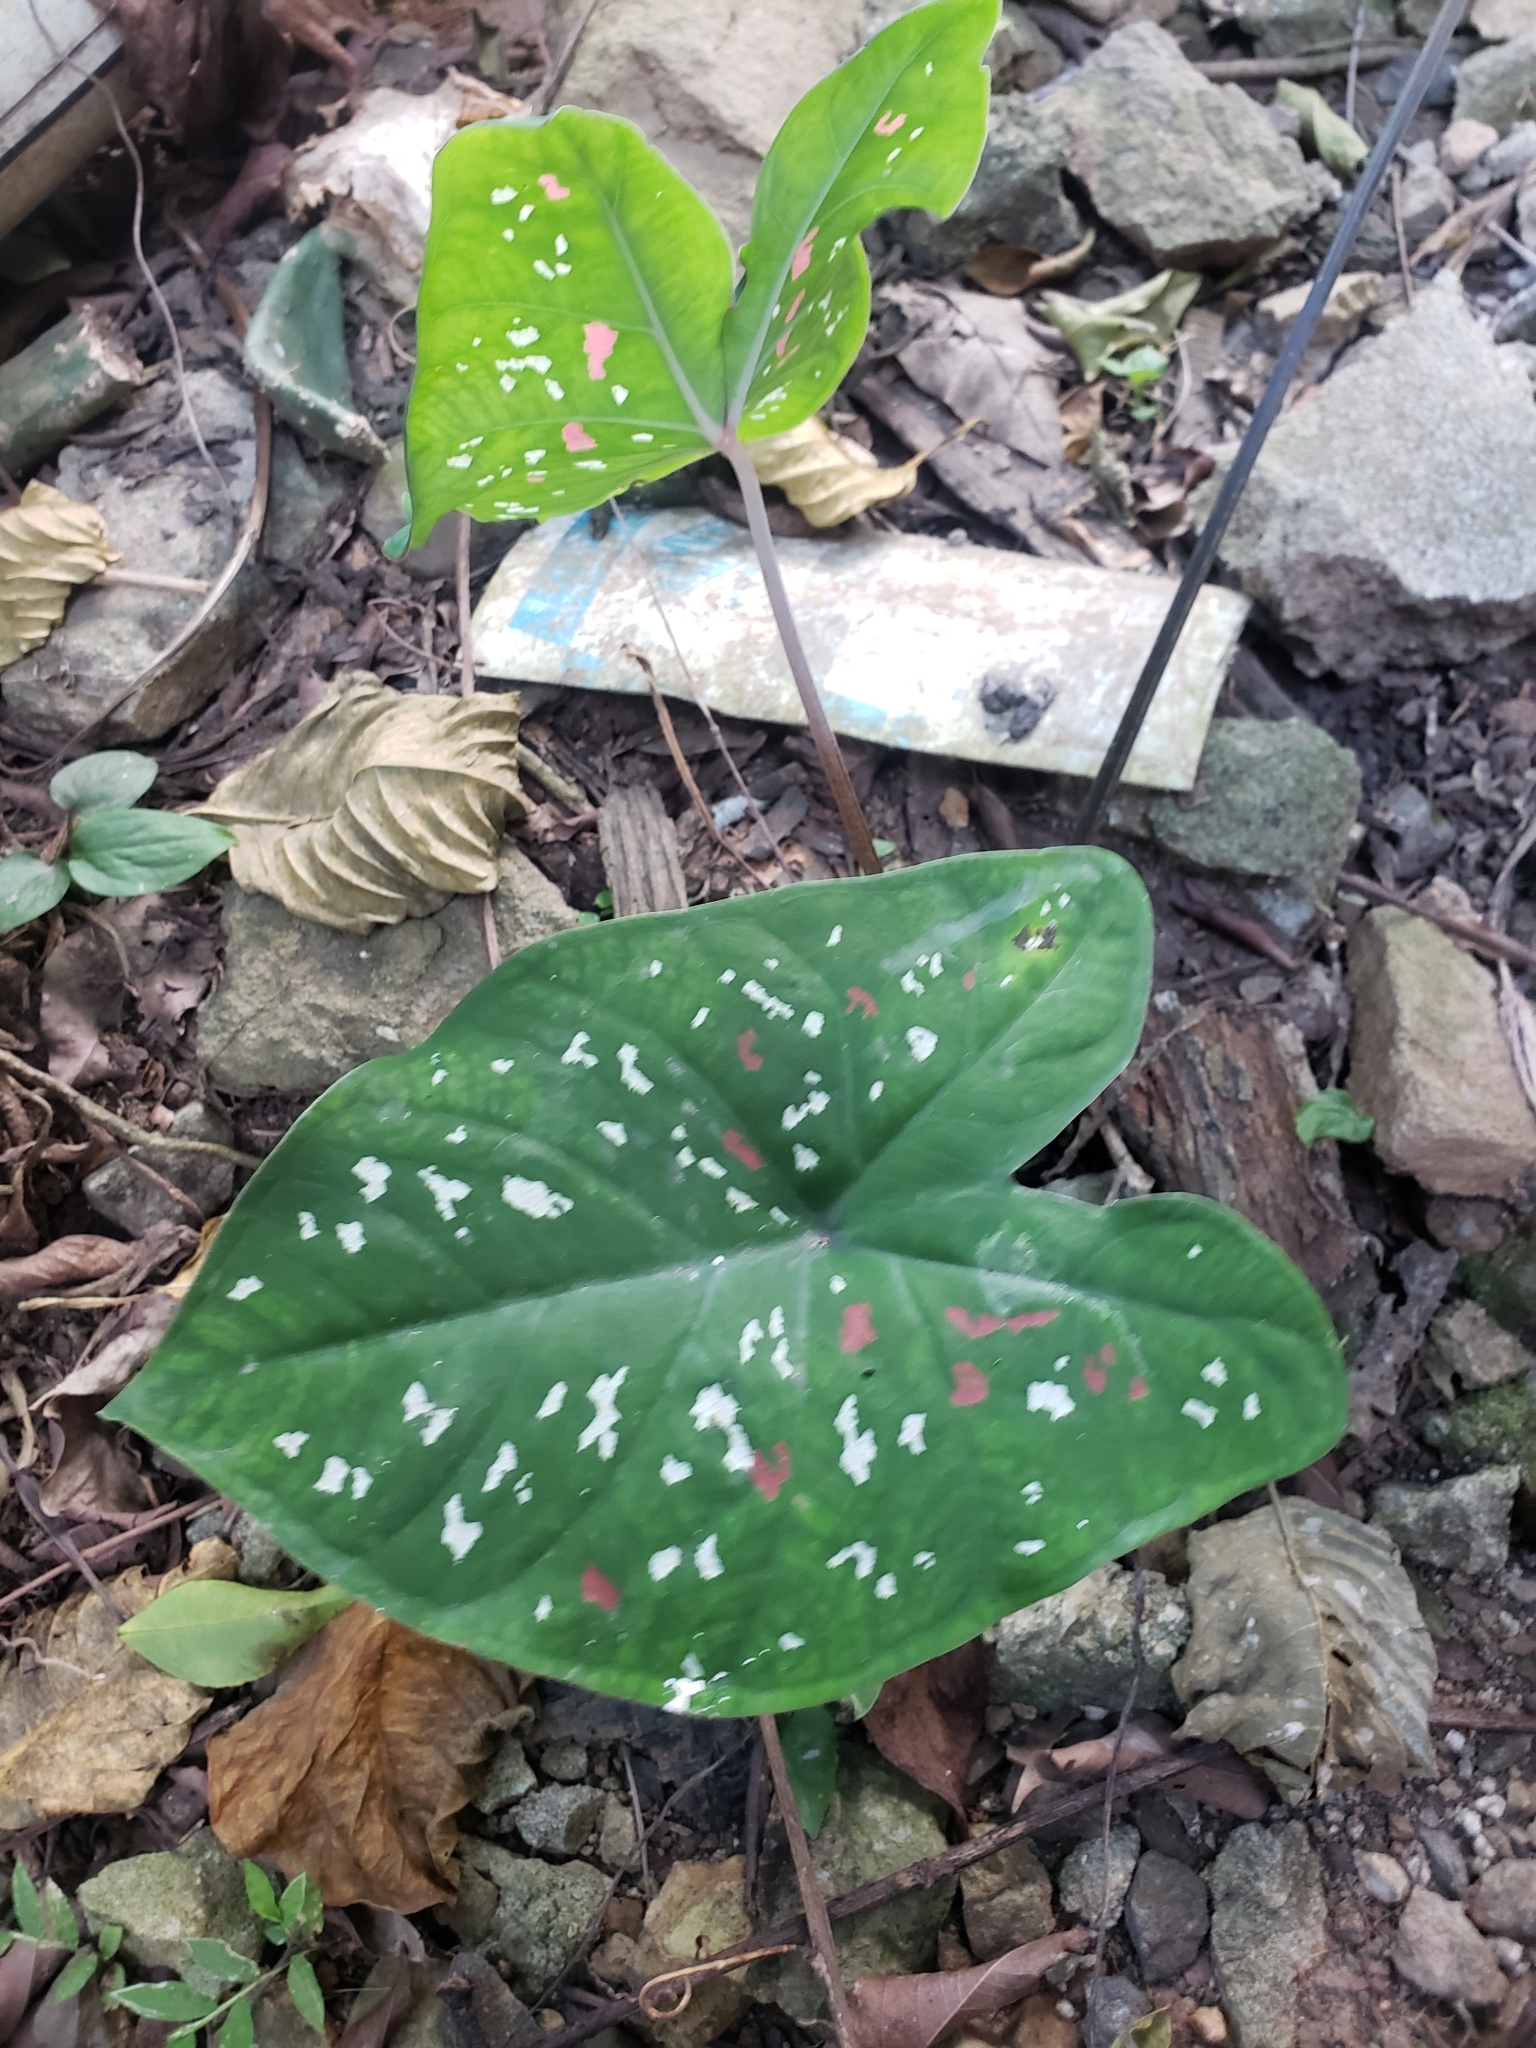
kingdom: Plantae
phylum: Tracheophyta
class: Liliopsida
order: Alismatales
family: Araceae
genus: Caladium
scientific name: Caladium bicolor
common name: Artist's pallet
